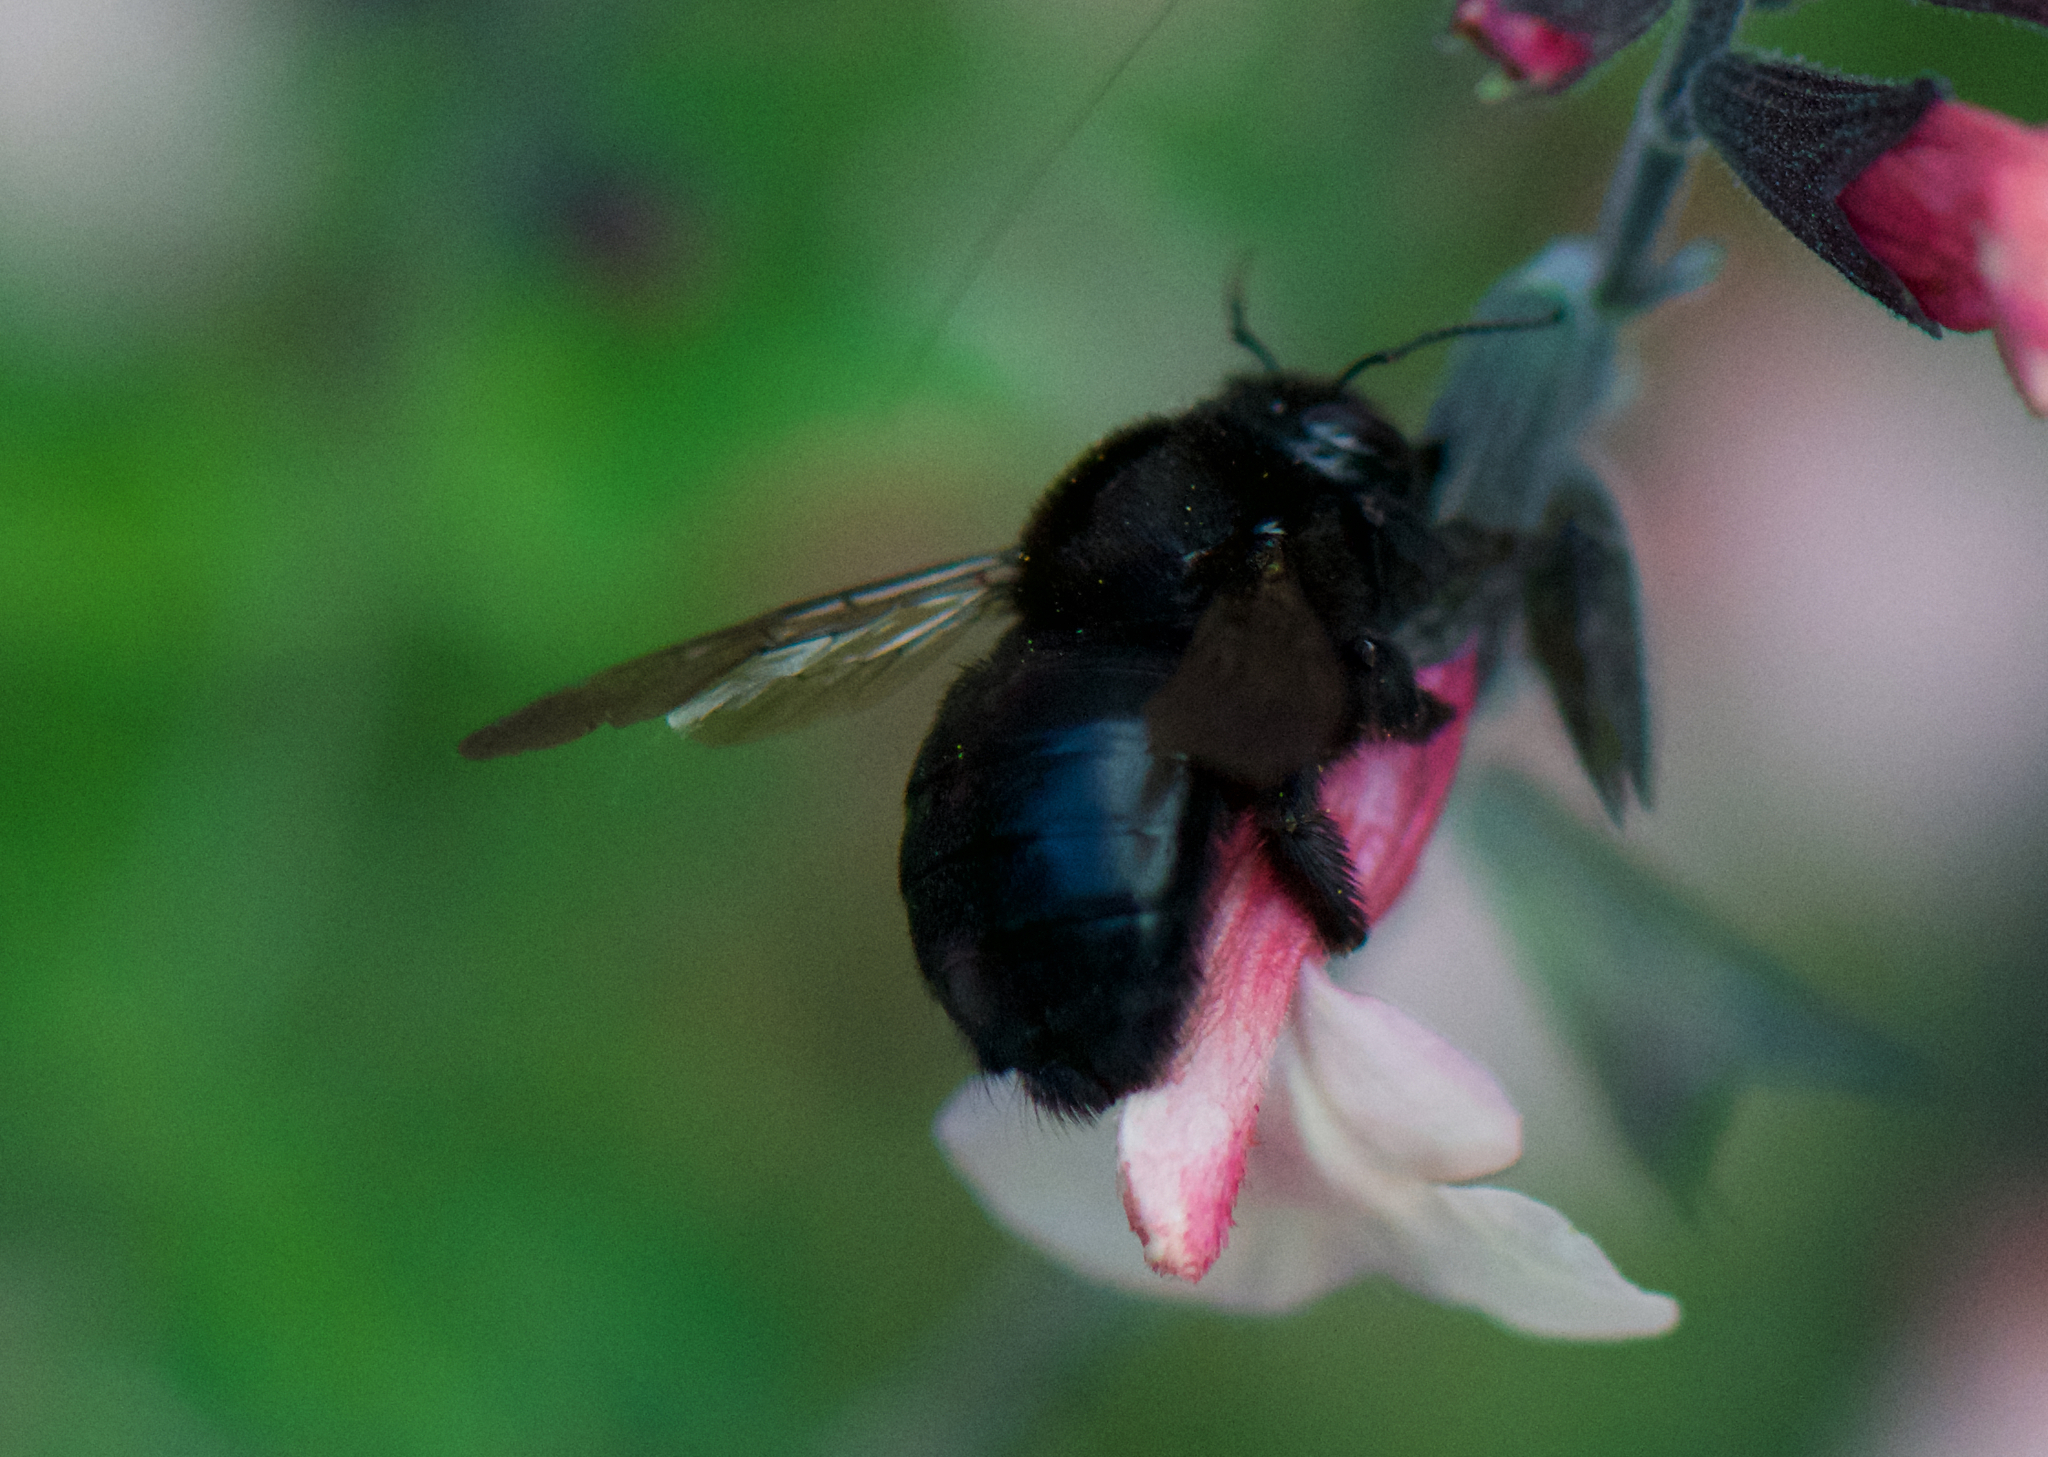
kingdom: Animalia
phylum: Arthropoda
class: Insecta
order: Hymenoptera
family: Apidae
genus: Xylocopa
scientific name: Xylocopa tabaniformis
